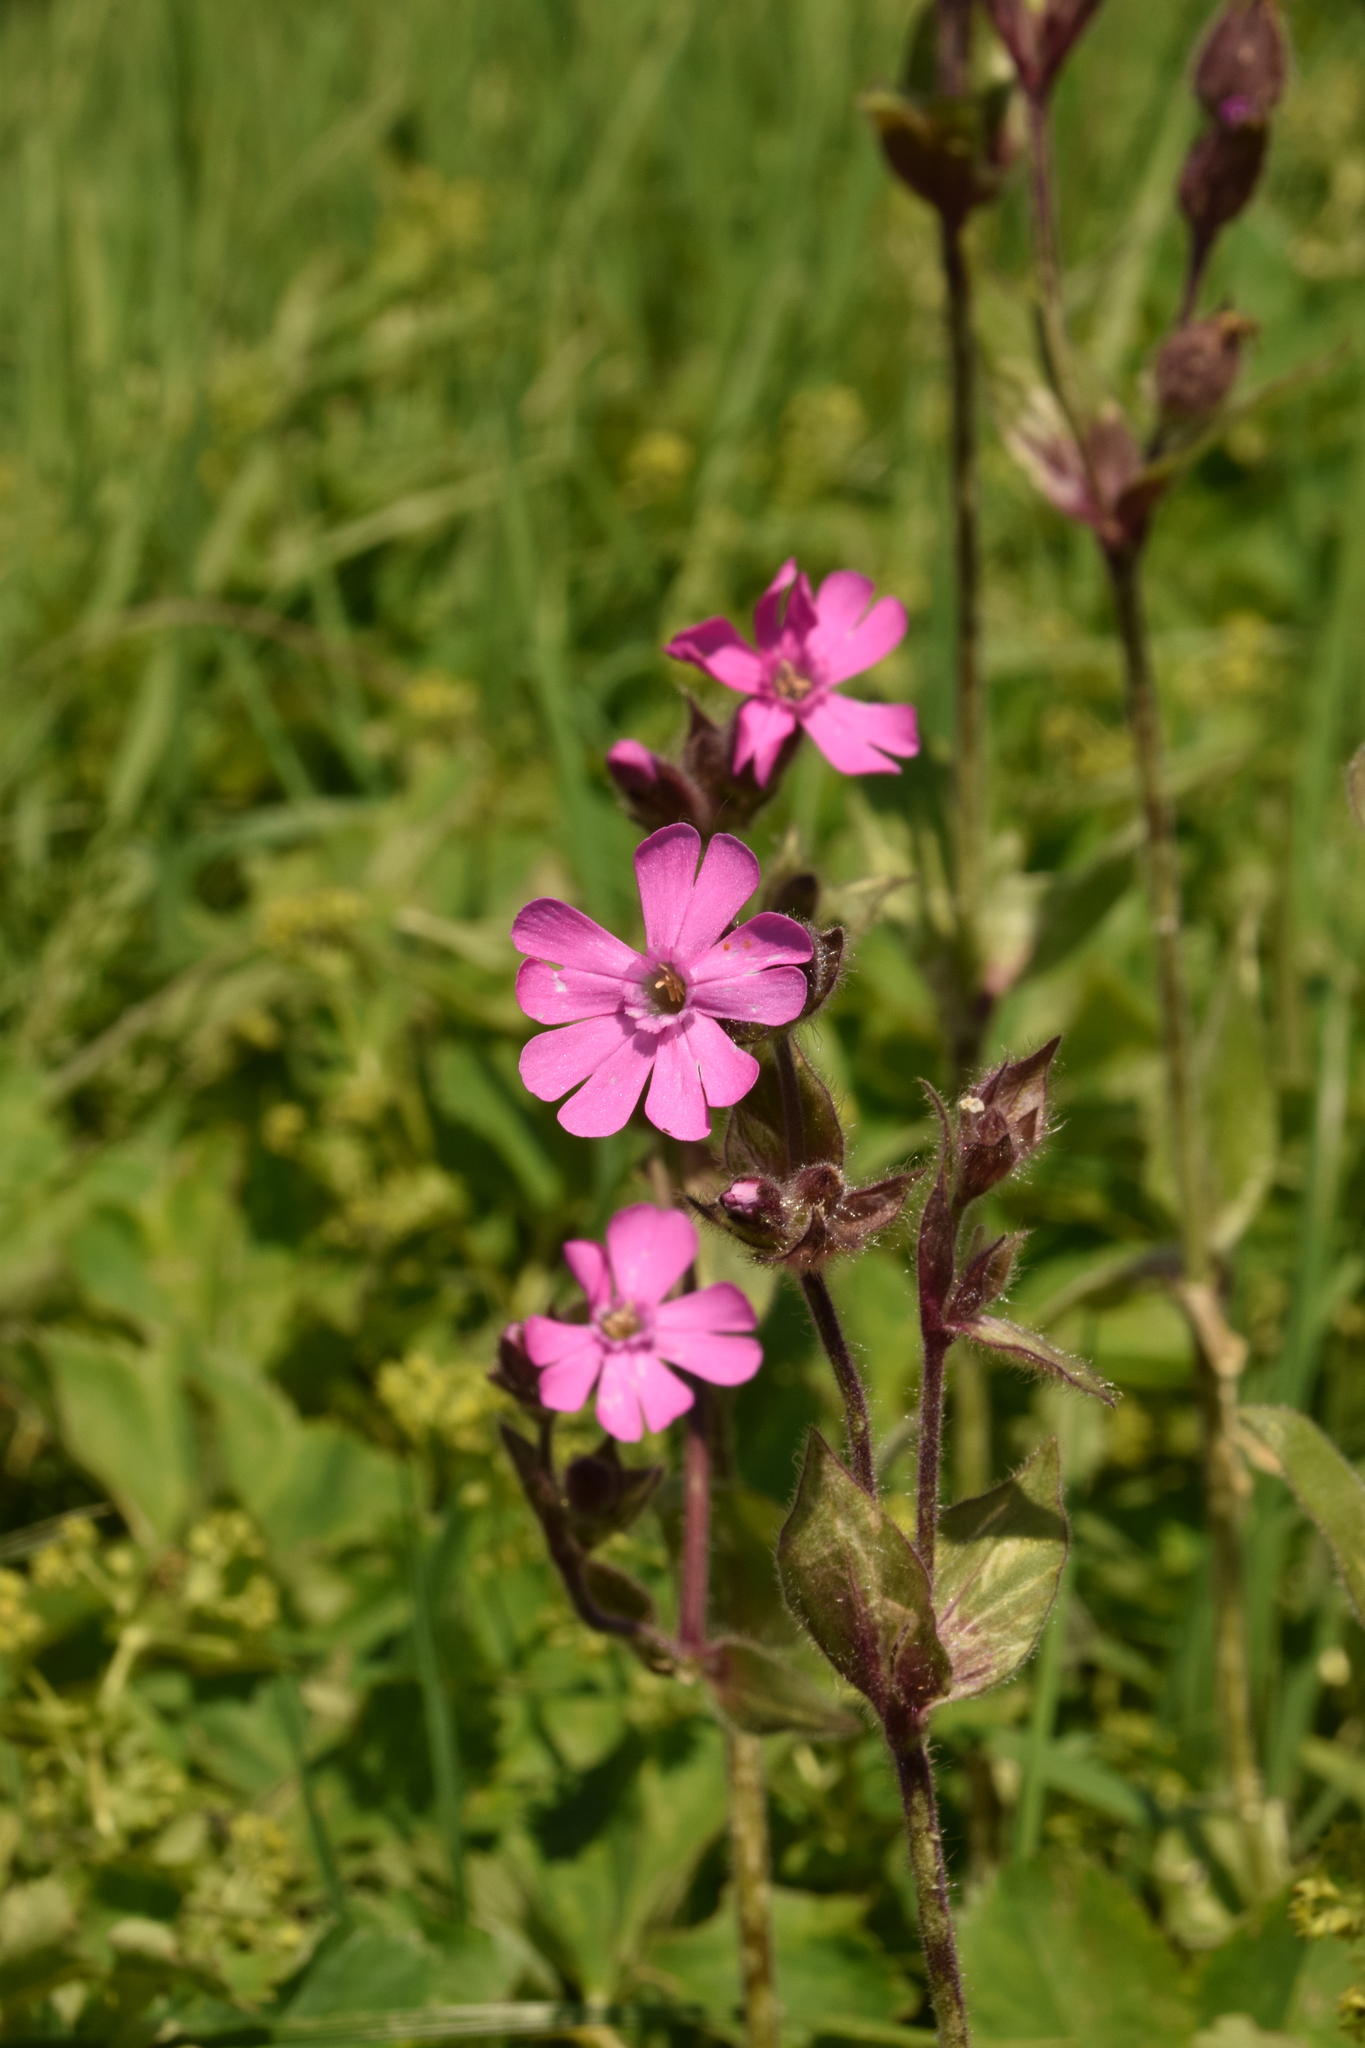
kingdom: Plantae
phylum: Tracheophyta
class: Magnoliopsida
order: Caryophyllales
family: Caryophyllaceae
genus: Silene
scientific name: Silene dioica
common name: Red campion
